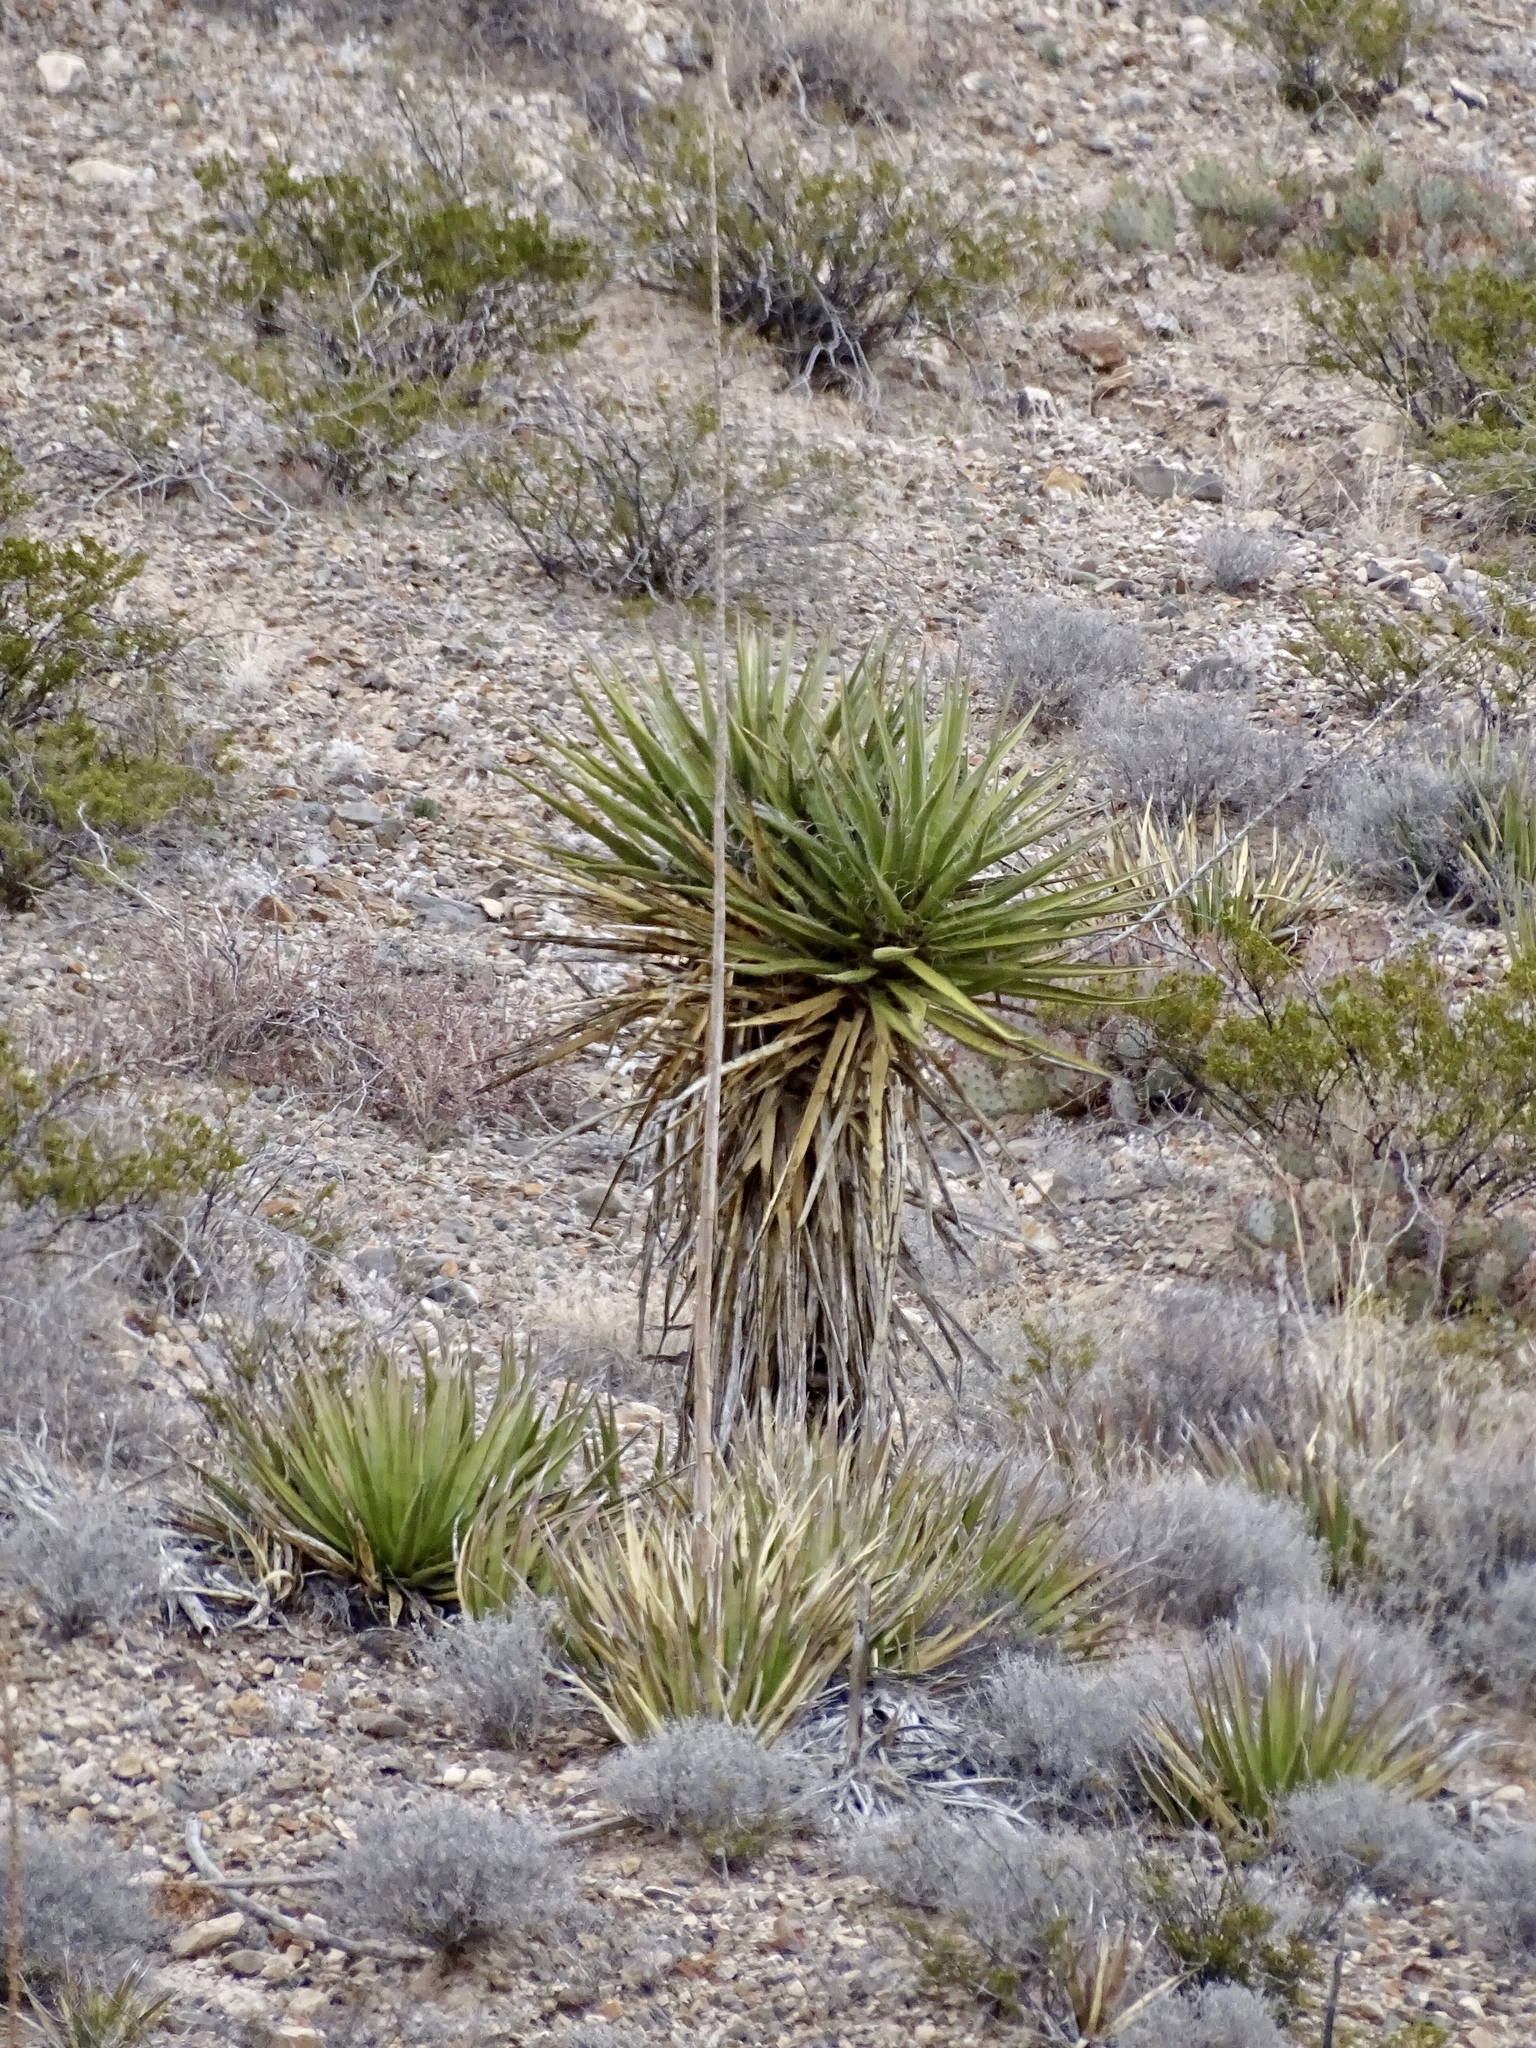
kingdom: Plantae
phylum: Tracheophyta
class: Liliopsida
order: Asparagales
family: Asparagaceae
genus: Yucca
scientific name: Yucca treculiana
